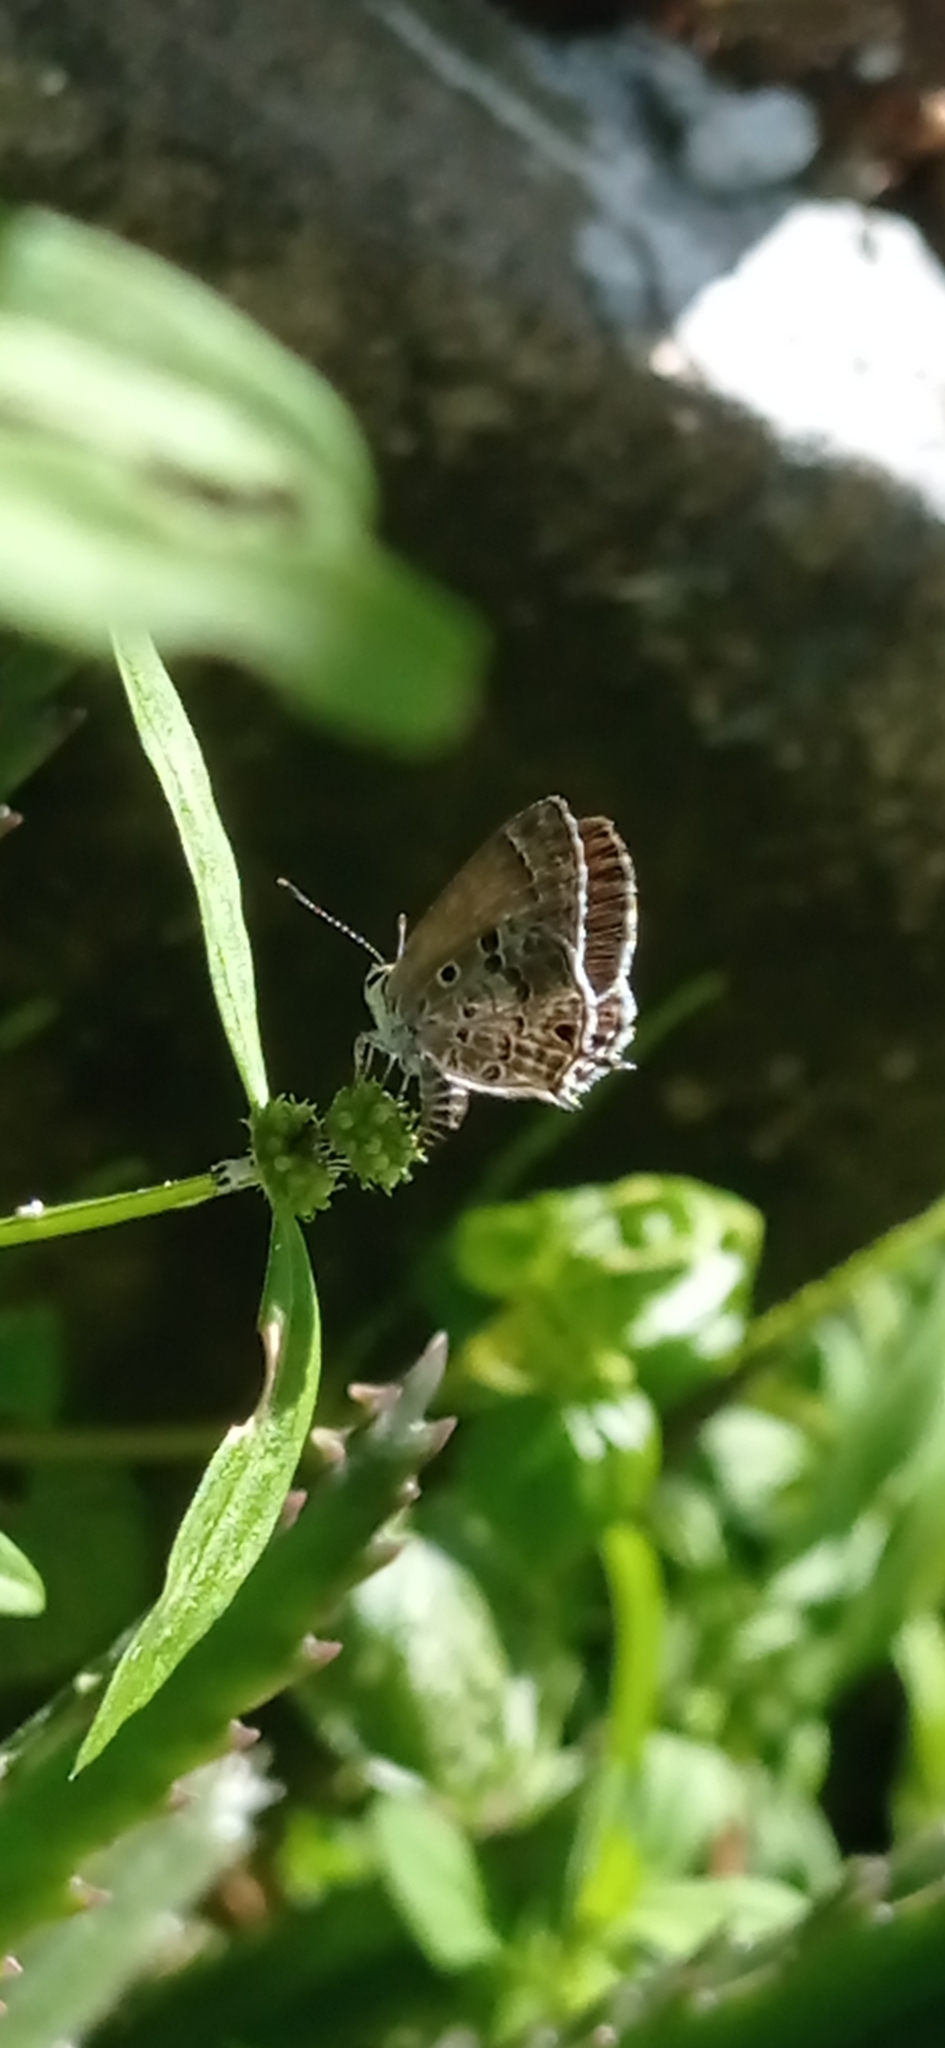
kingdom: Animalia
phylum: Arthropoda
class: Insecta
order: Lepidoptera
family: Lycaenidae
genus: Strymon
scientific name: Strymon astiocha
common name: Gray-spotted scrub-hairstreak
